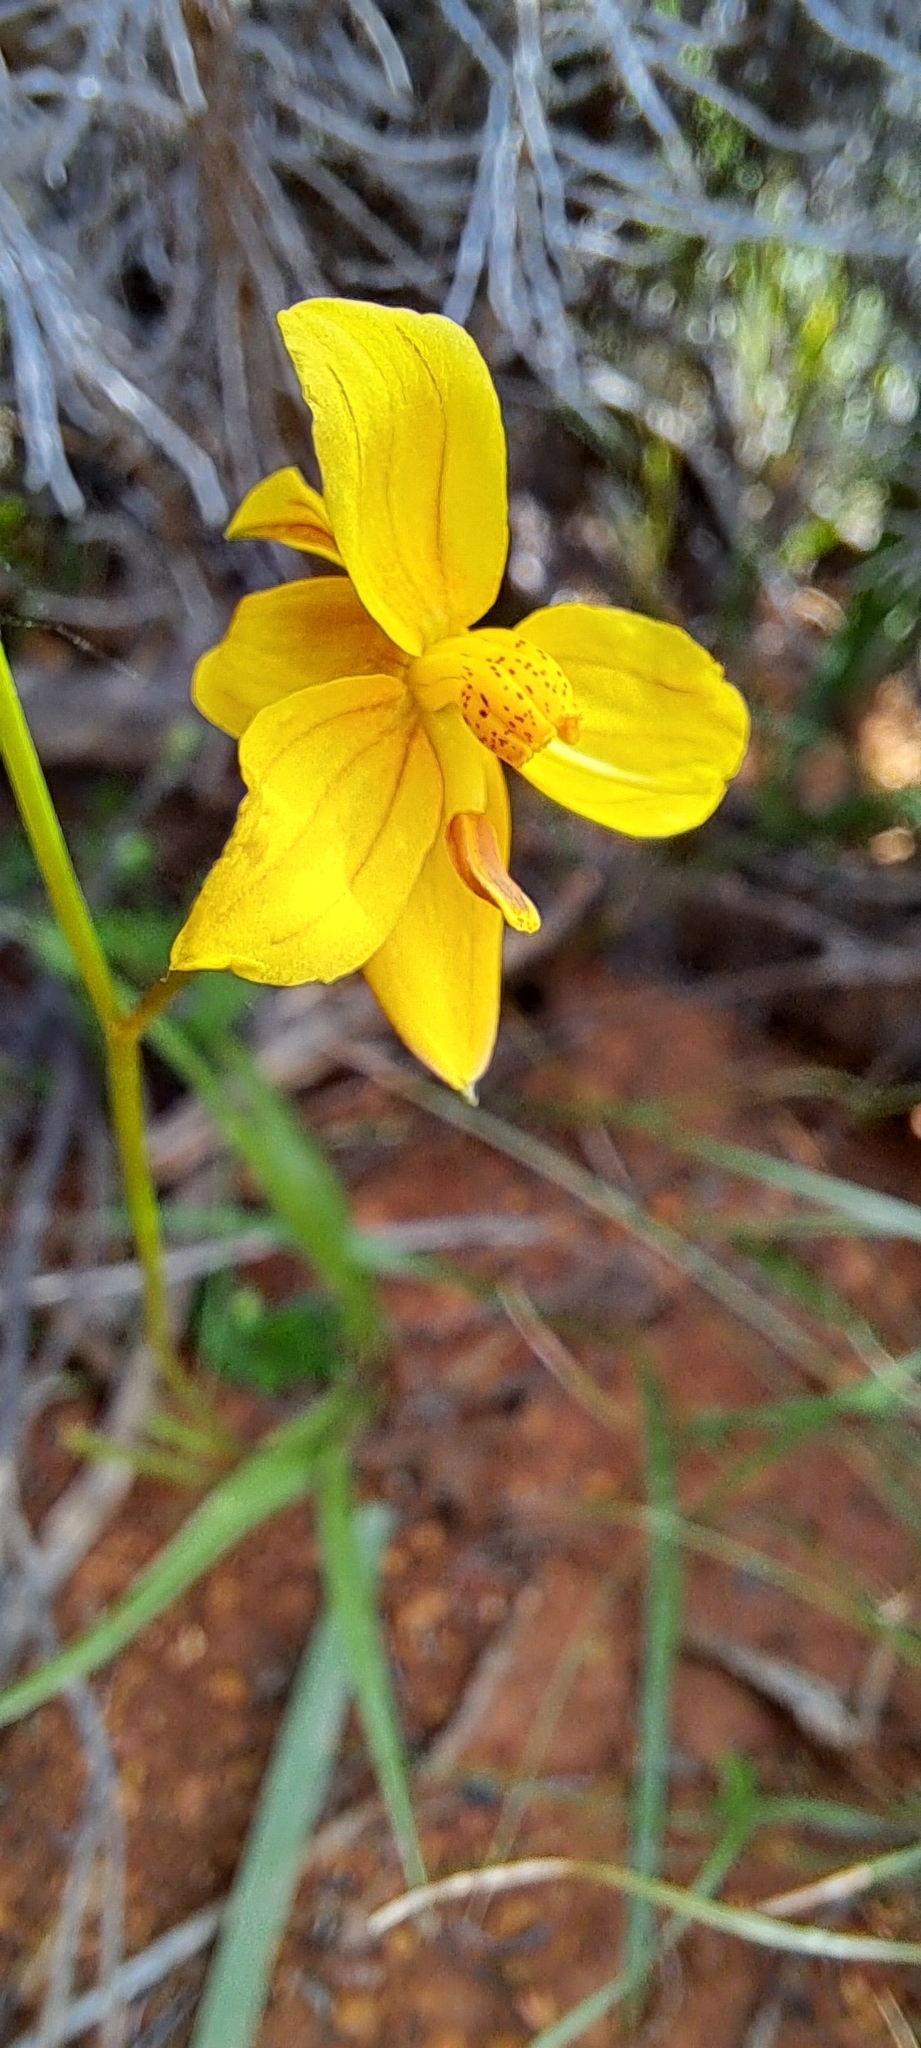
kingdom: Plantae
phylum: Tracheophyta
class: Liliopsida
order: Asparagales
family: Tecophilaeaceae
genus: Cyanella
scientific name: Cyanella lutea
